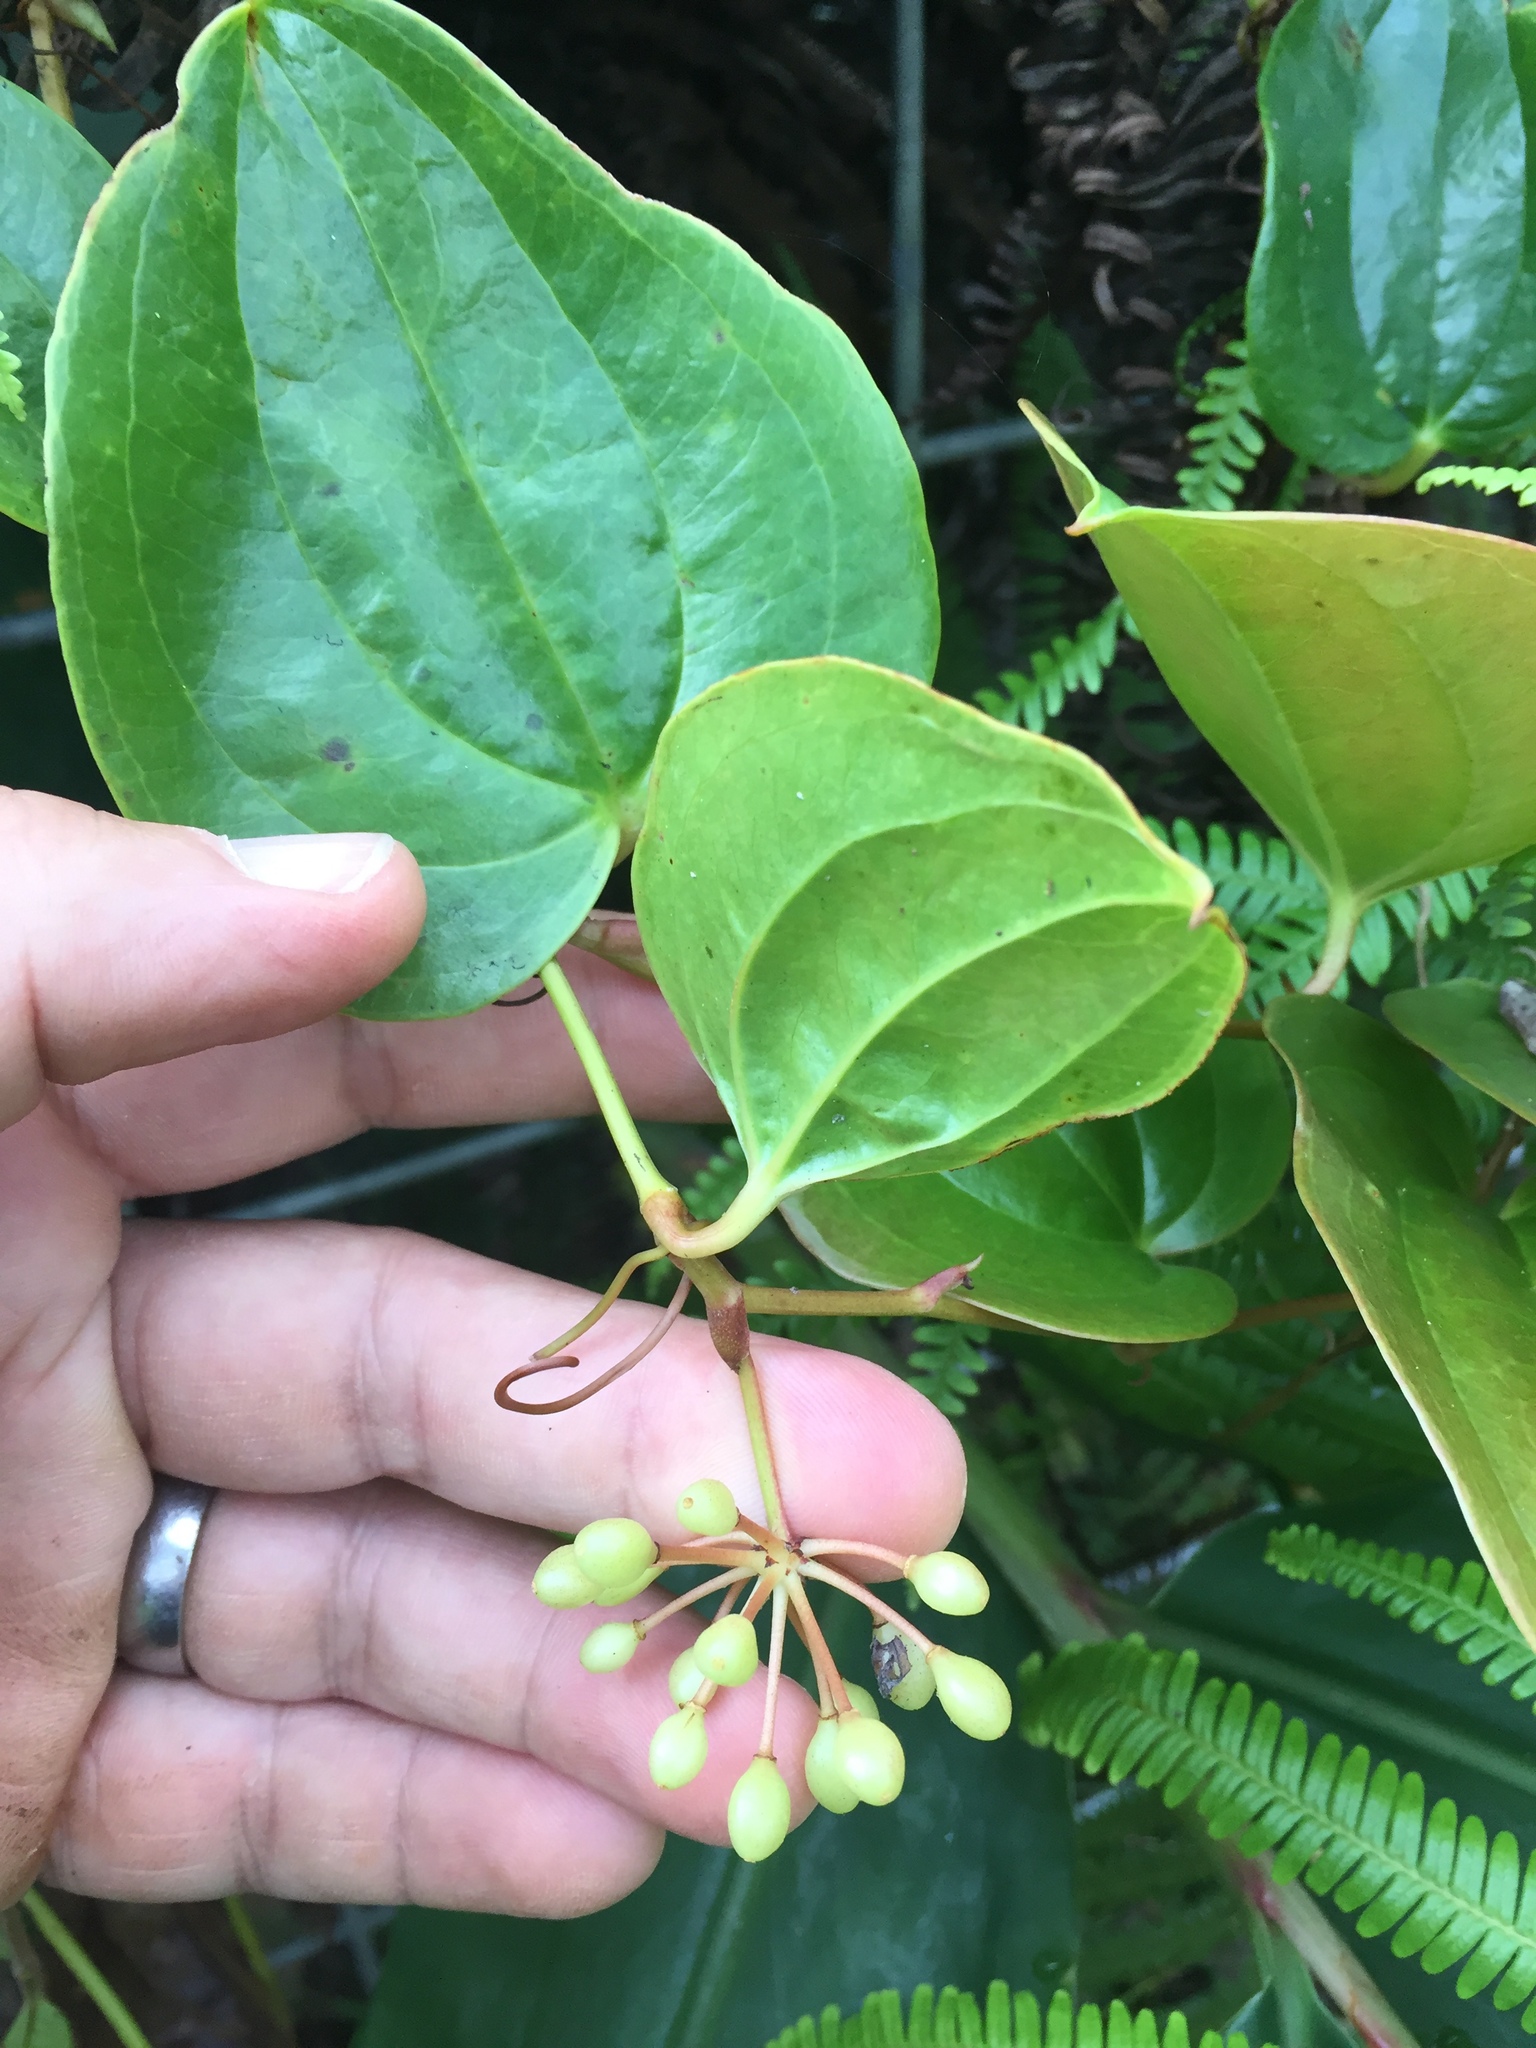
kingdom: Plantae
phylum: Tracheophyta
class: Liliopsida
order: Liliales
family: Smilacaceae
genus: Smilax
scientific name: Smilax melastomifolia
